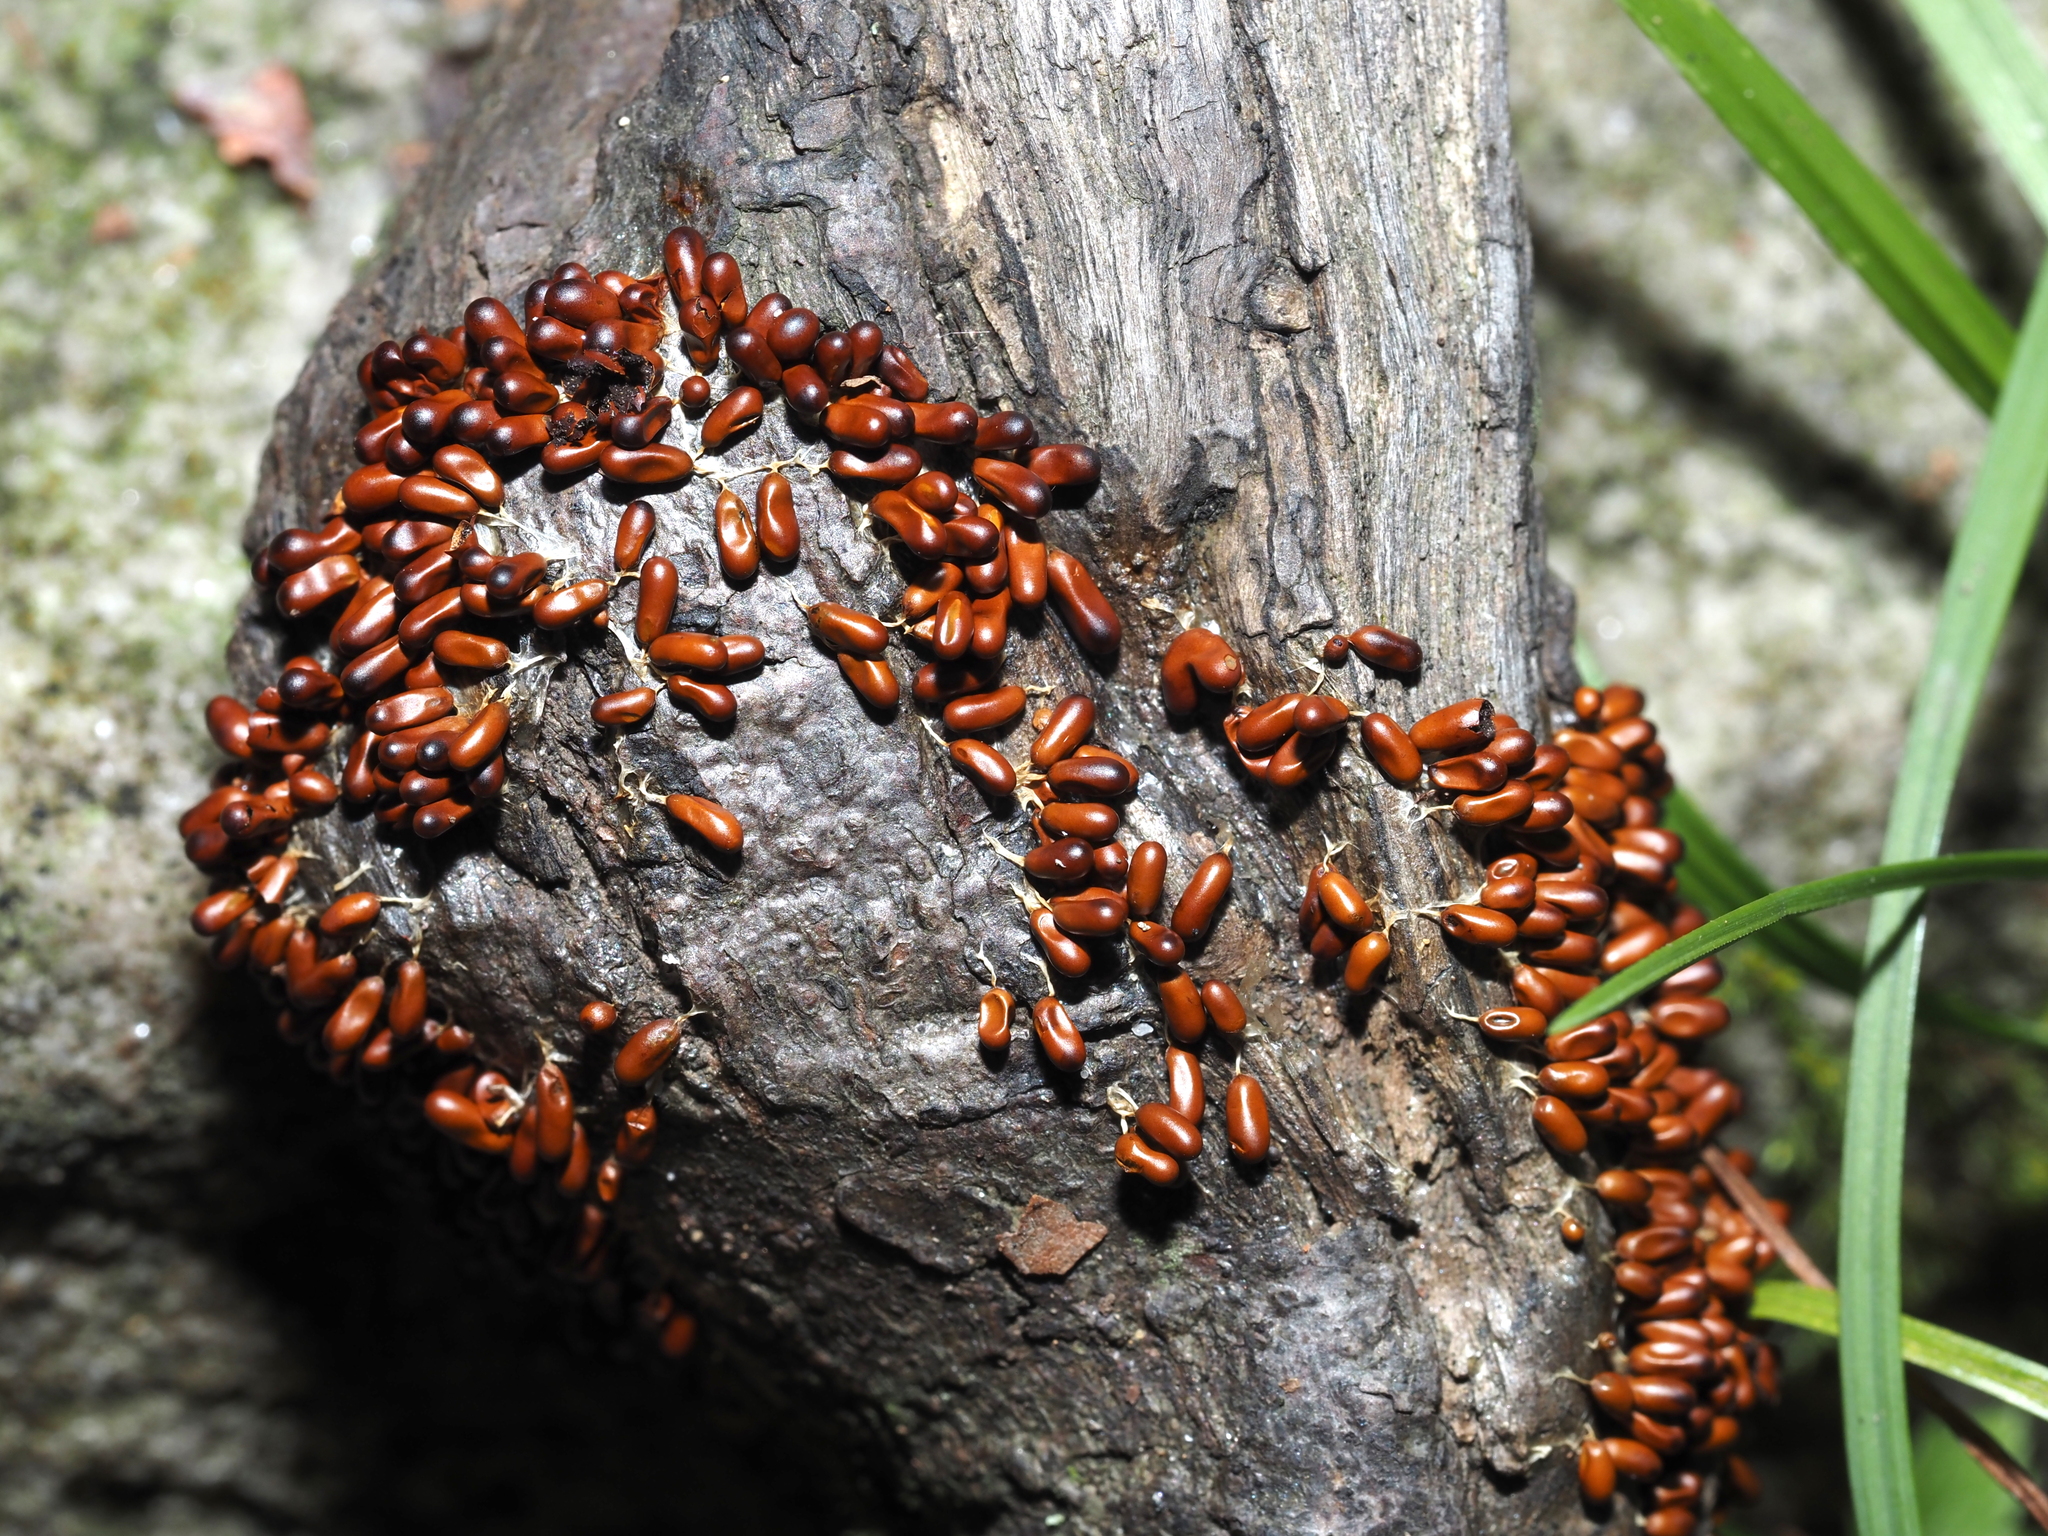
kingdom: Protozoa
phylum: Mycetozoa
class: Myxomycetes
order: Physarales
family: Physaraceae
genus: Leocarpus
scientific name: Leocarpus fragilis
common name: Insect-egg slime
